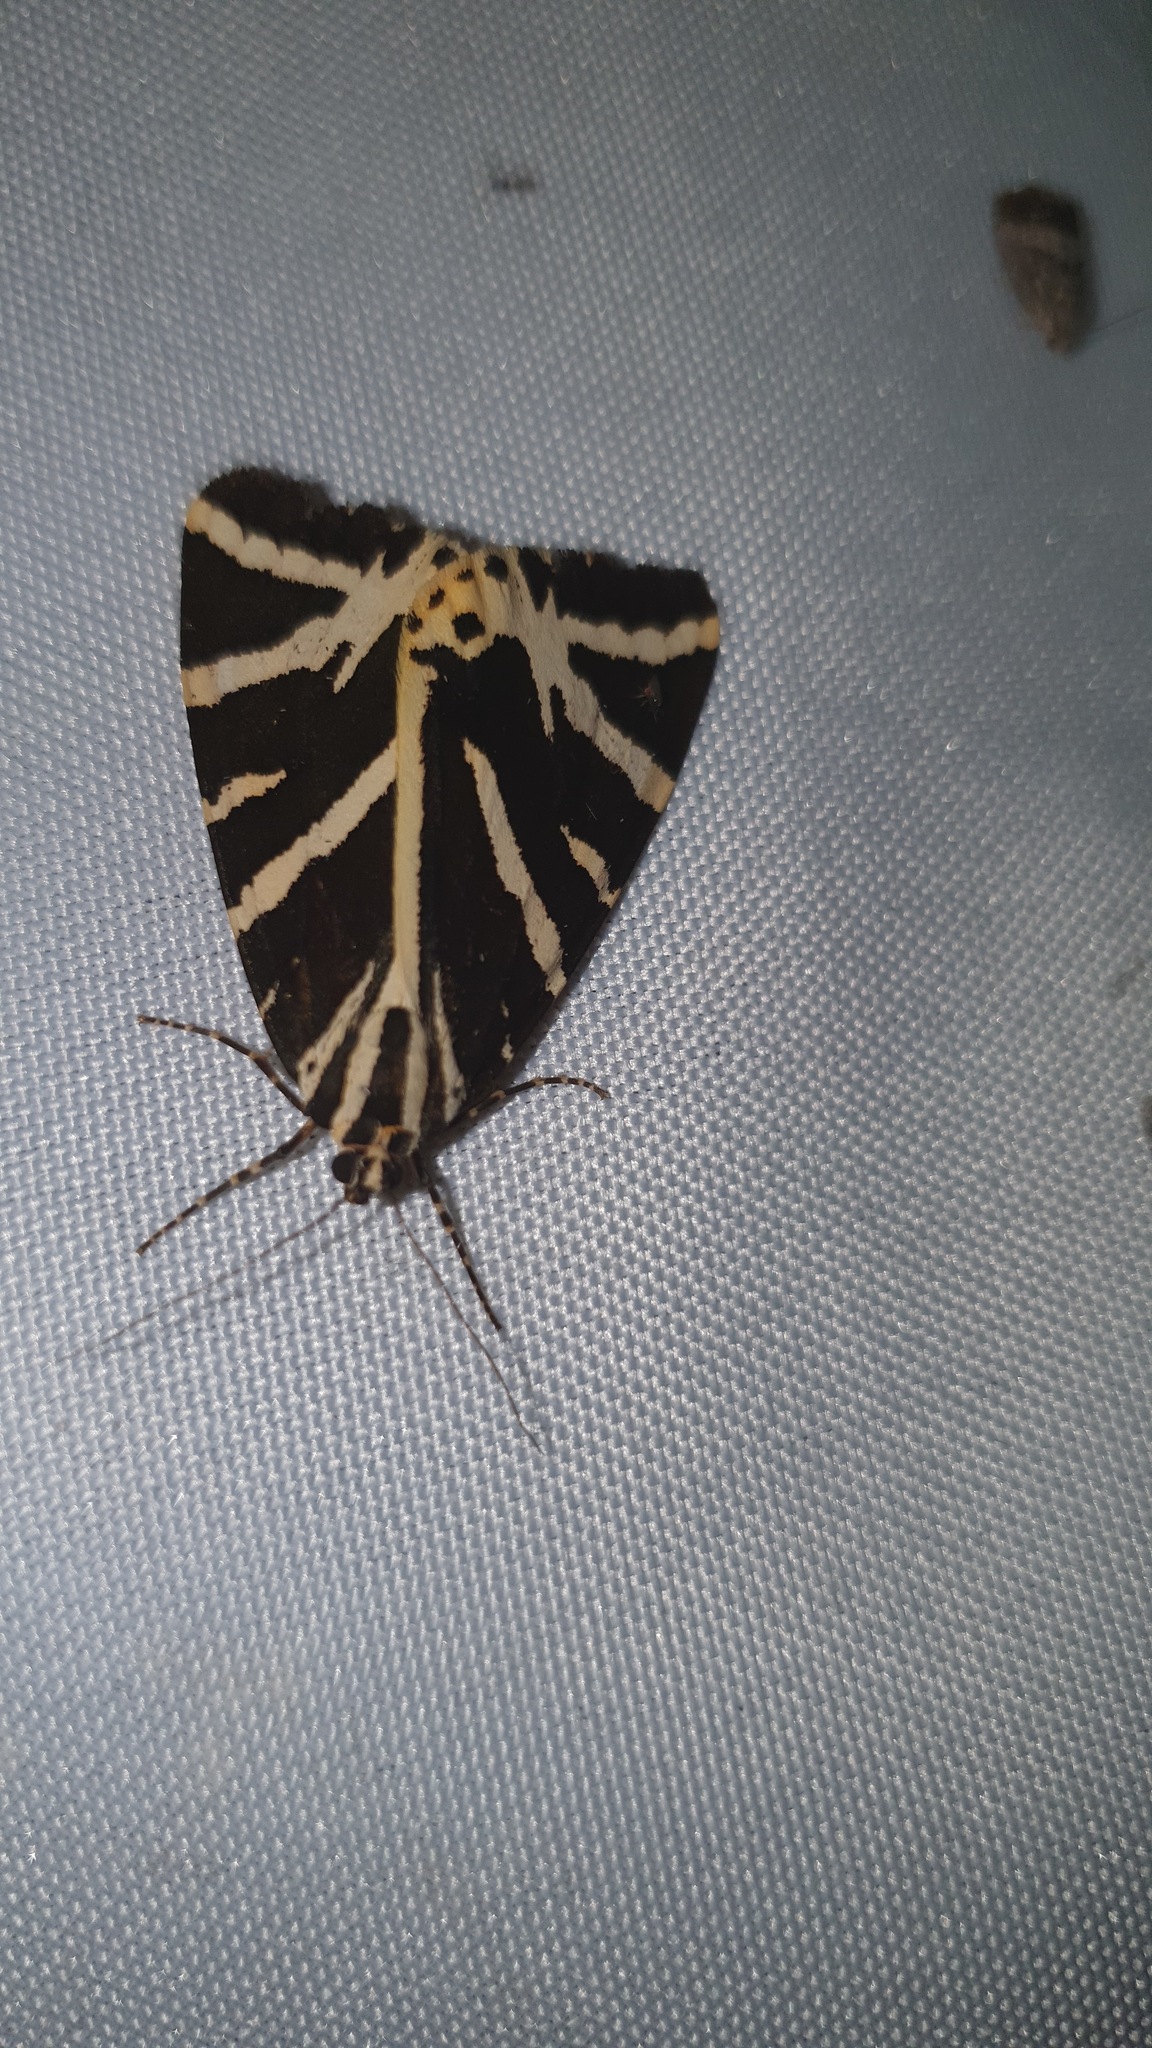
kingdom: Animalia
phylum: Arthropoda
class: Insecta
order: Lepidoptera
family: Erebidae
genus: Euplagia
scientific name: Euplagia quadripunctaria
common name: Jersey tiger
